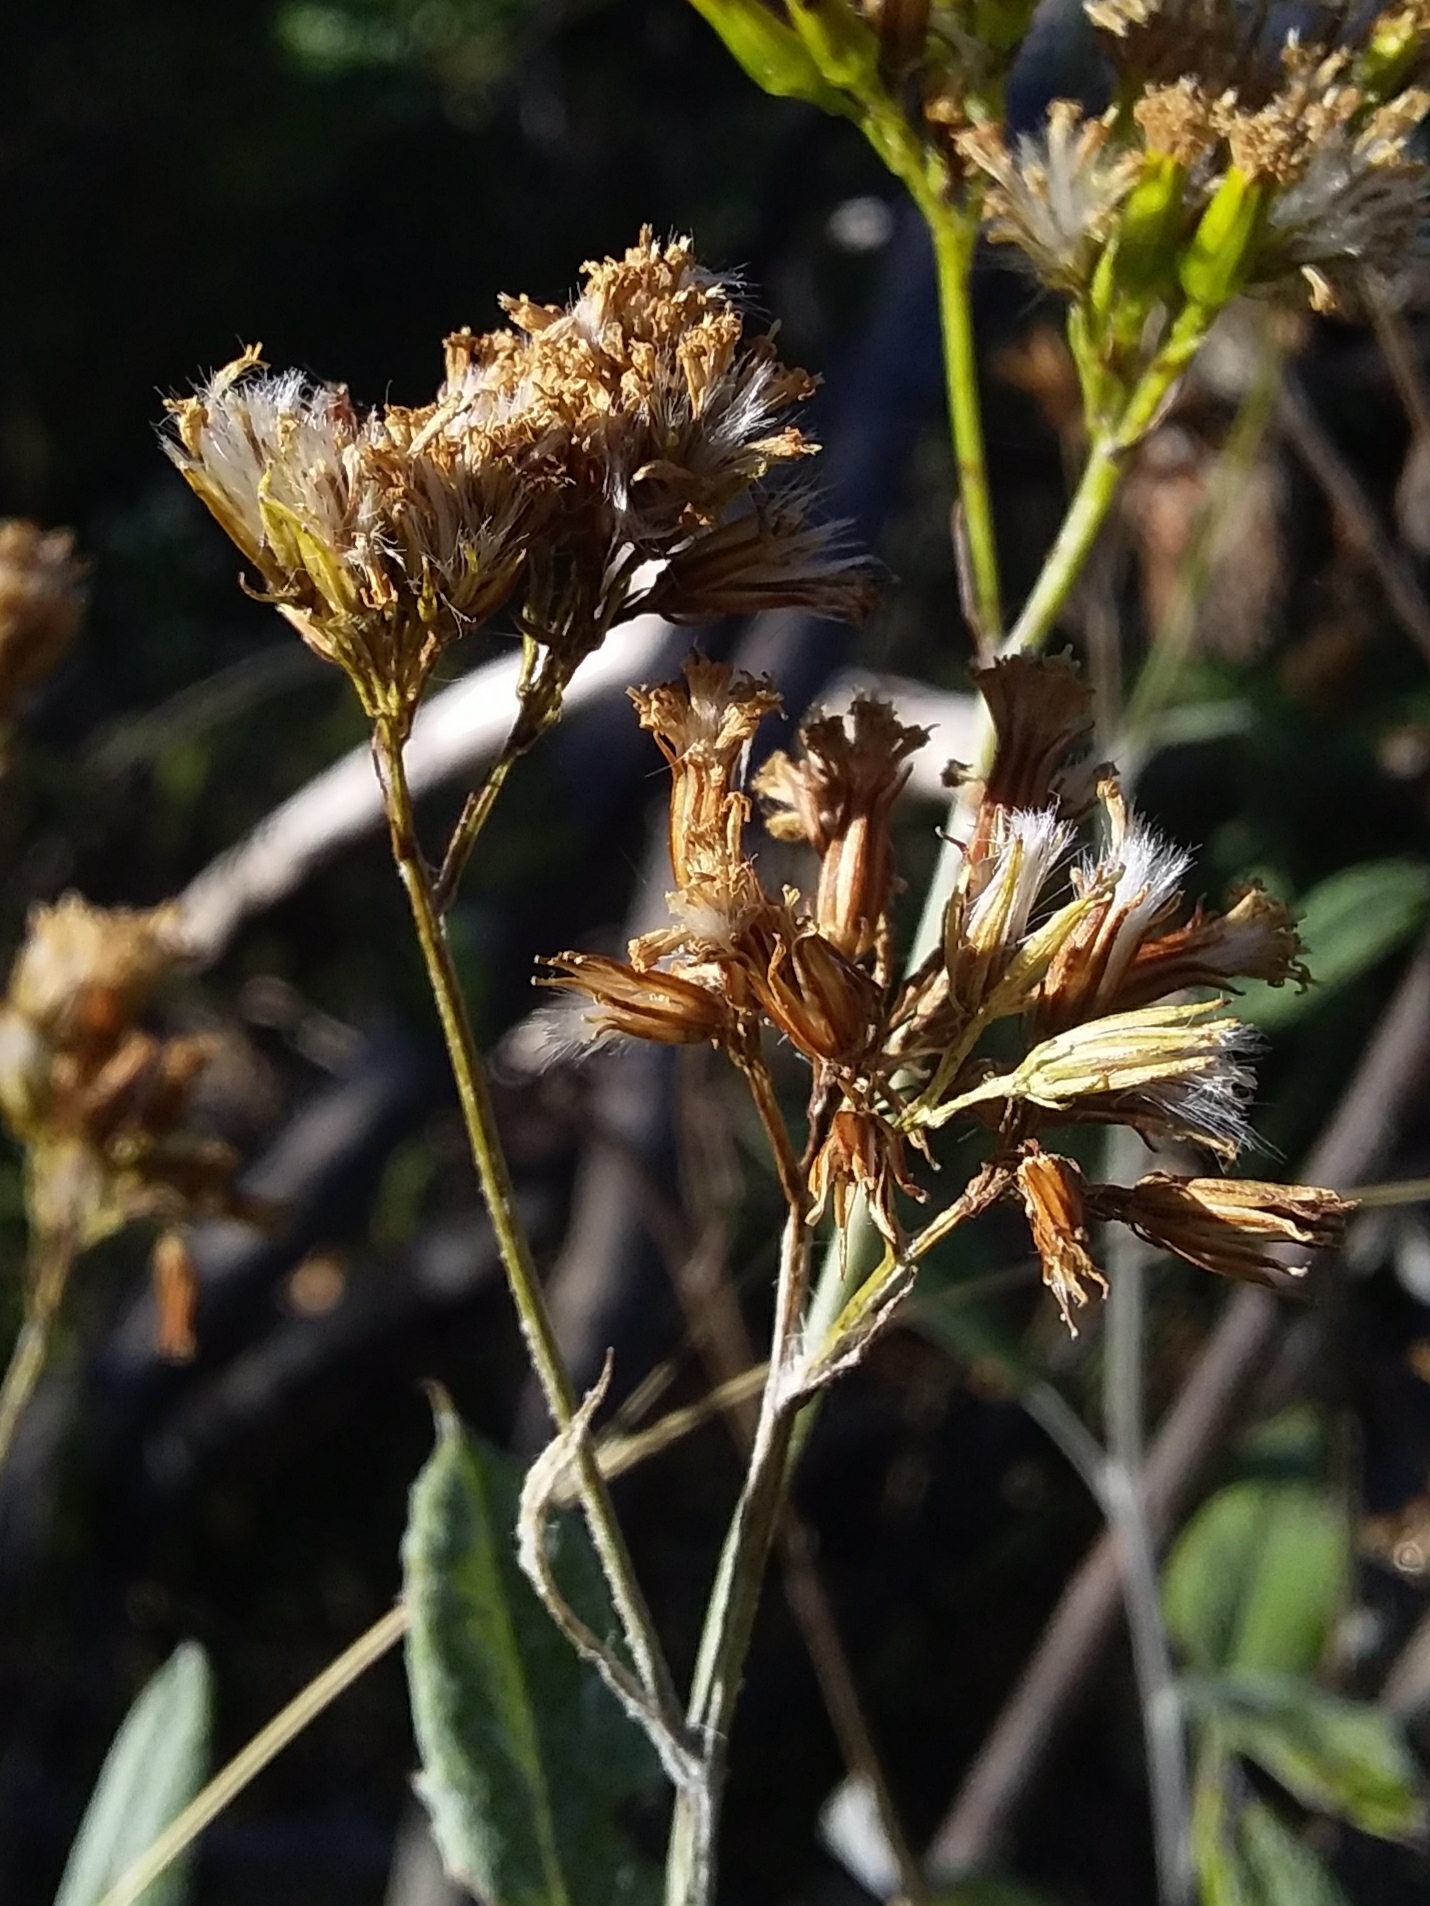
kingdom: Plantae
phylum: Tracheophyta
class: Magnoliopsida
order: Asterales
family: Asteraceae
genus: Senecio
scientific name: Senecio hypoleucus
